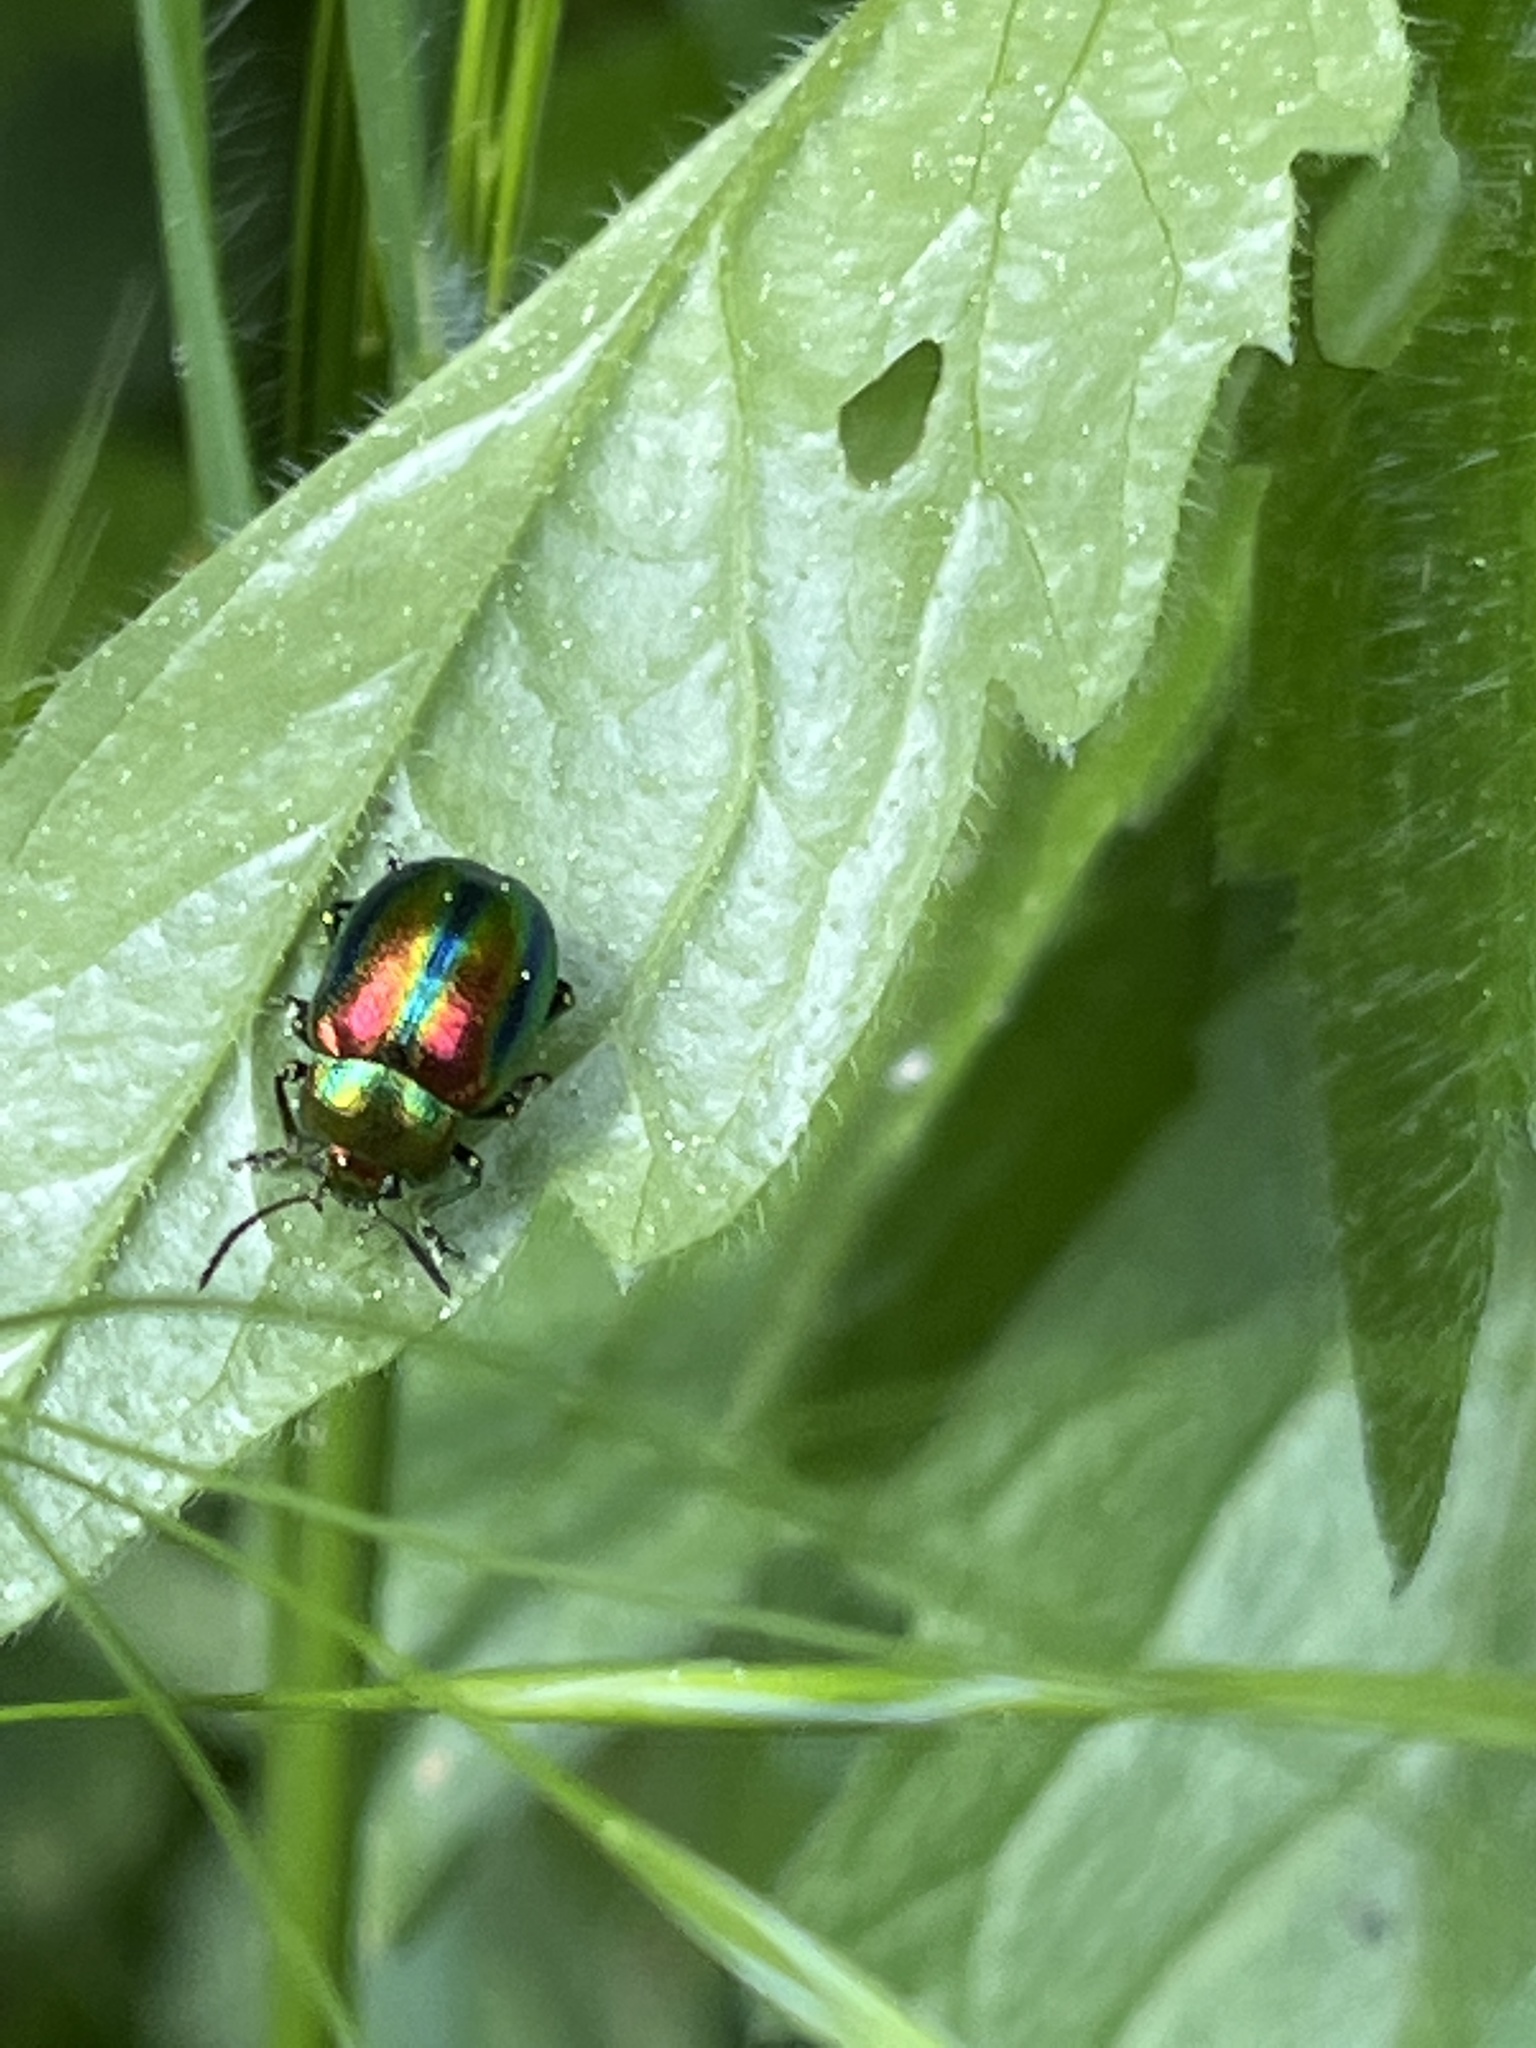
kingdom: Animalia
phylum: Arthropoda
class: Insecta
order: Coleoptera
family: Chrysomelidae
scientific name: Chrysomelidae
